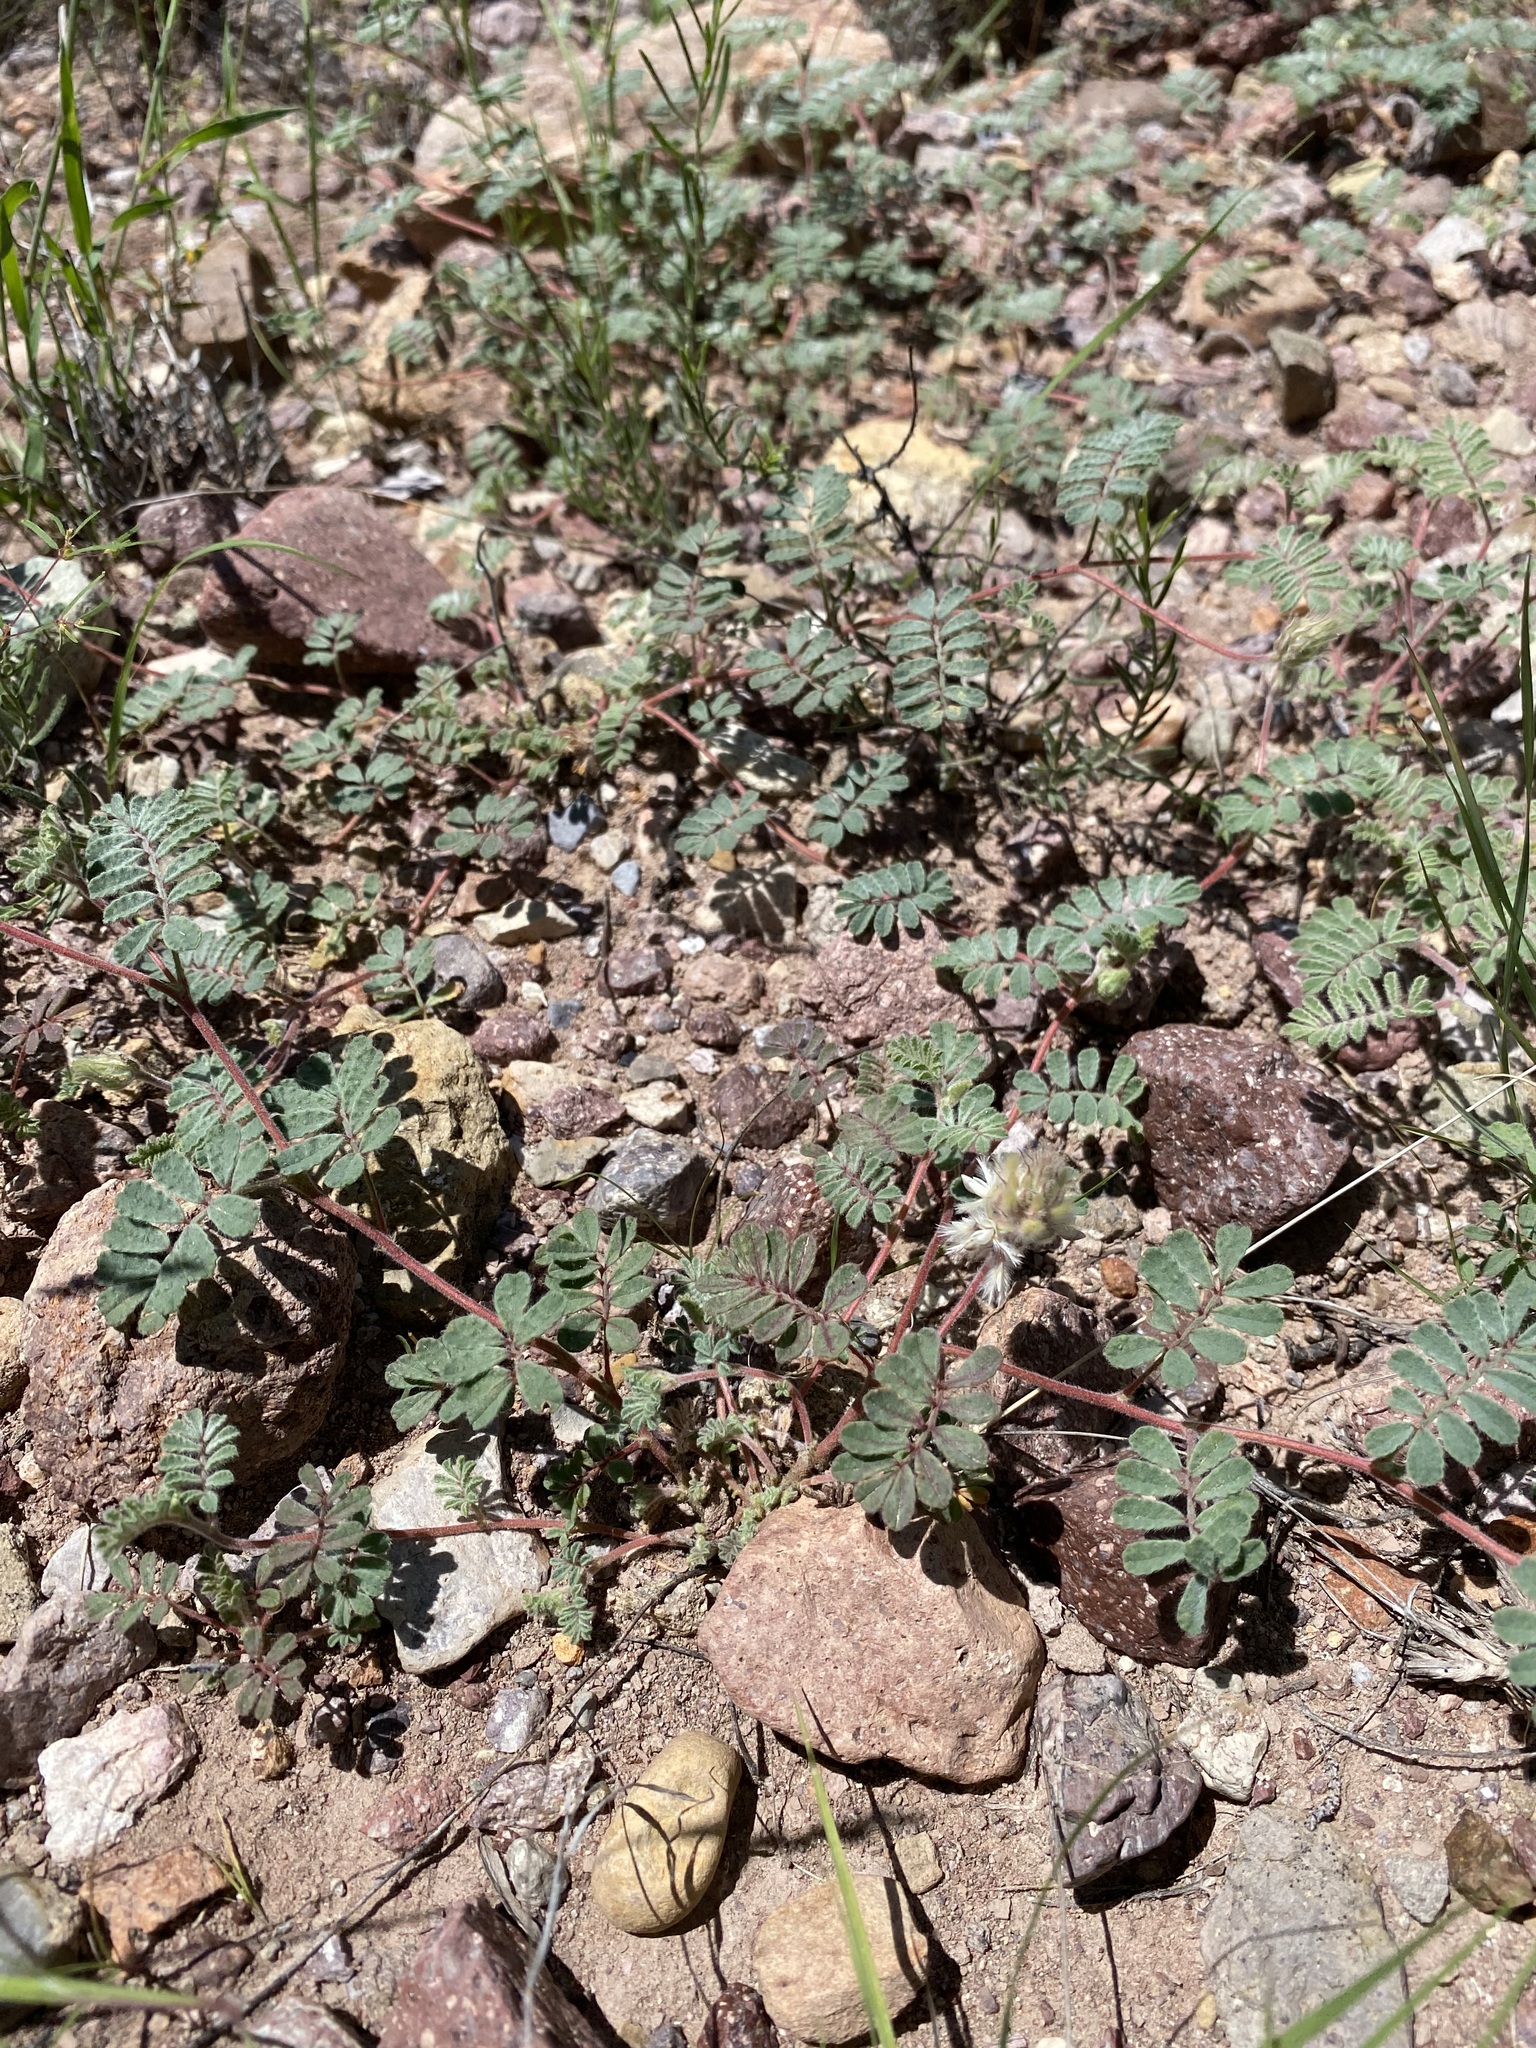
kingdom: Plantae
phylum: Tracheophyta
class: Magnoliopsida
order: Fabales
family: Fabaceae
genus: Dalea
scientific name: Dalea neomexicana
